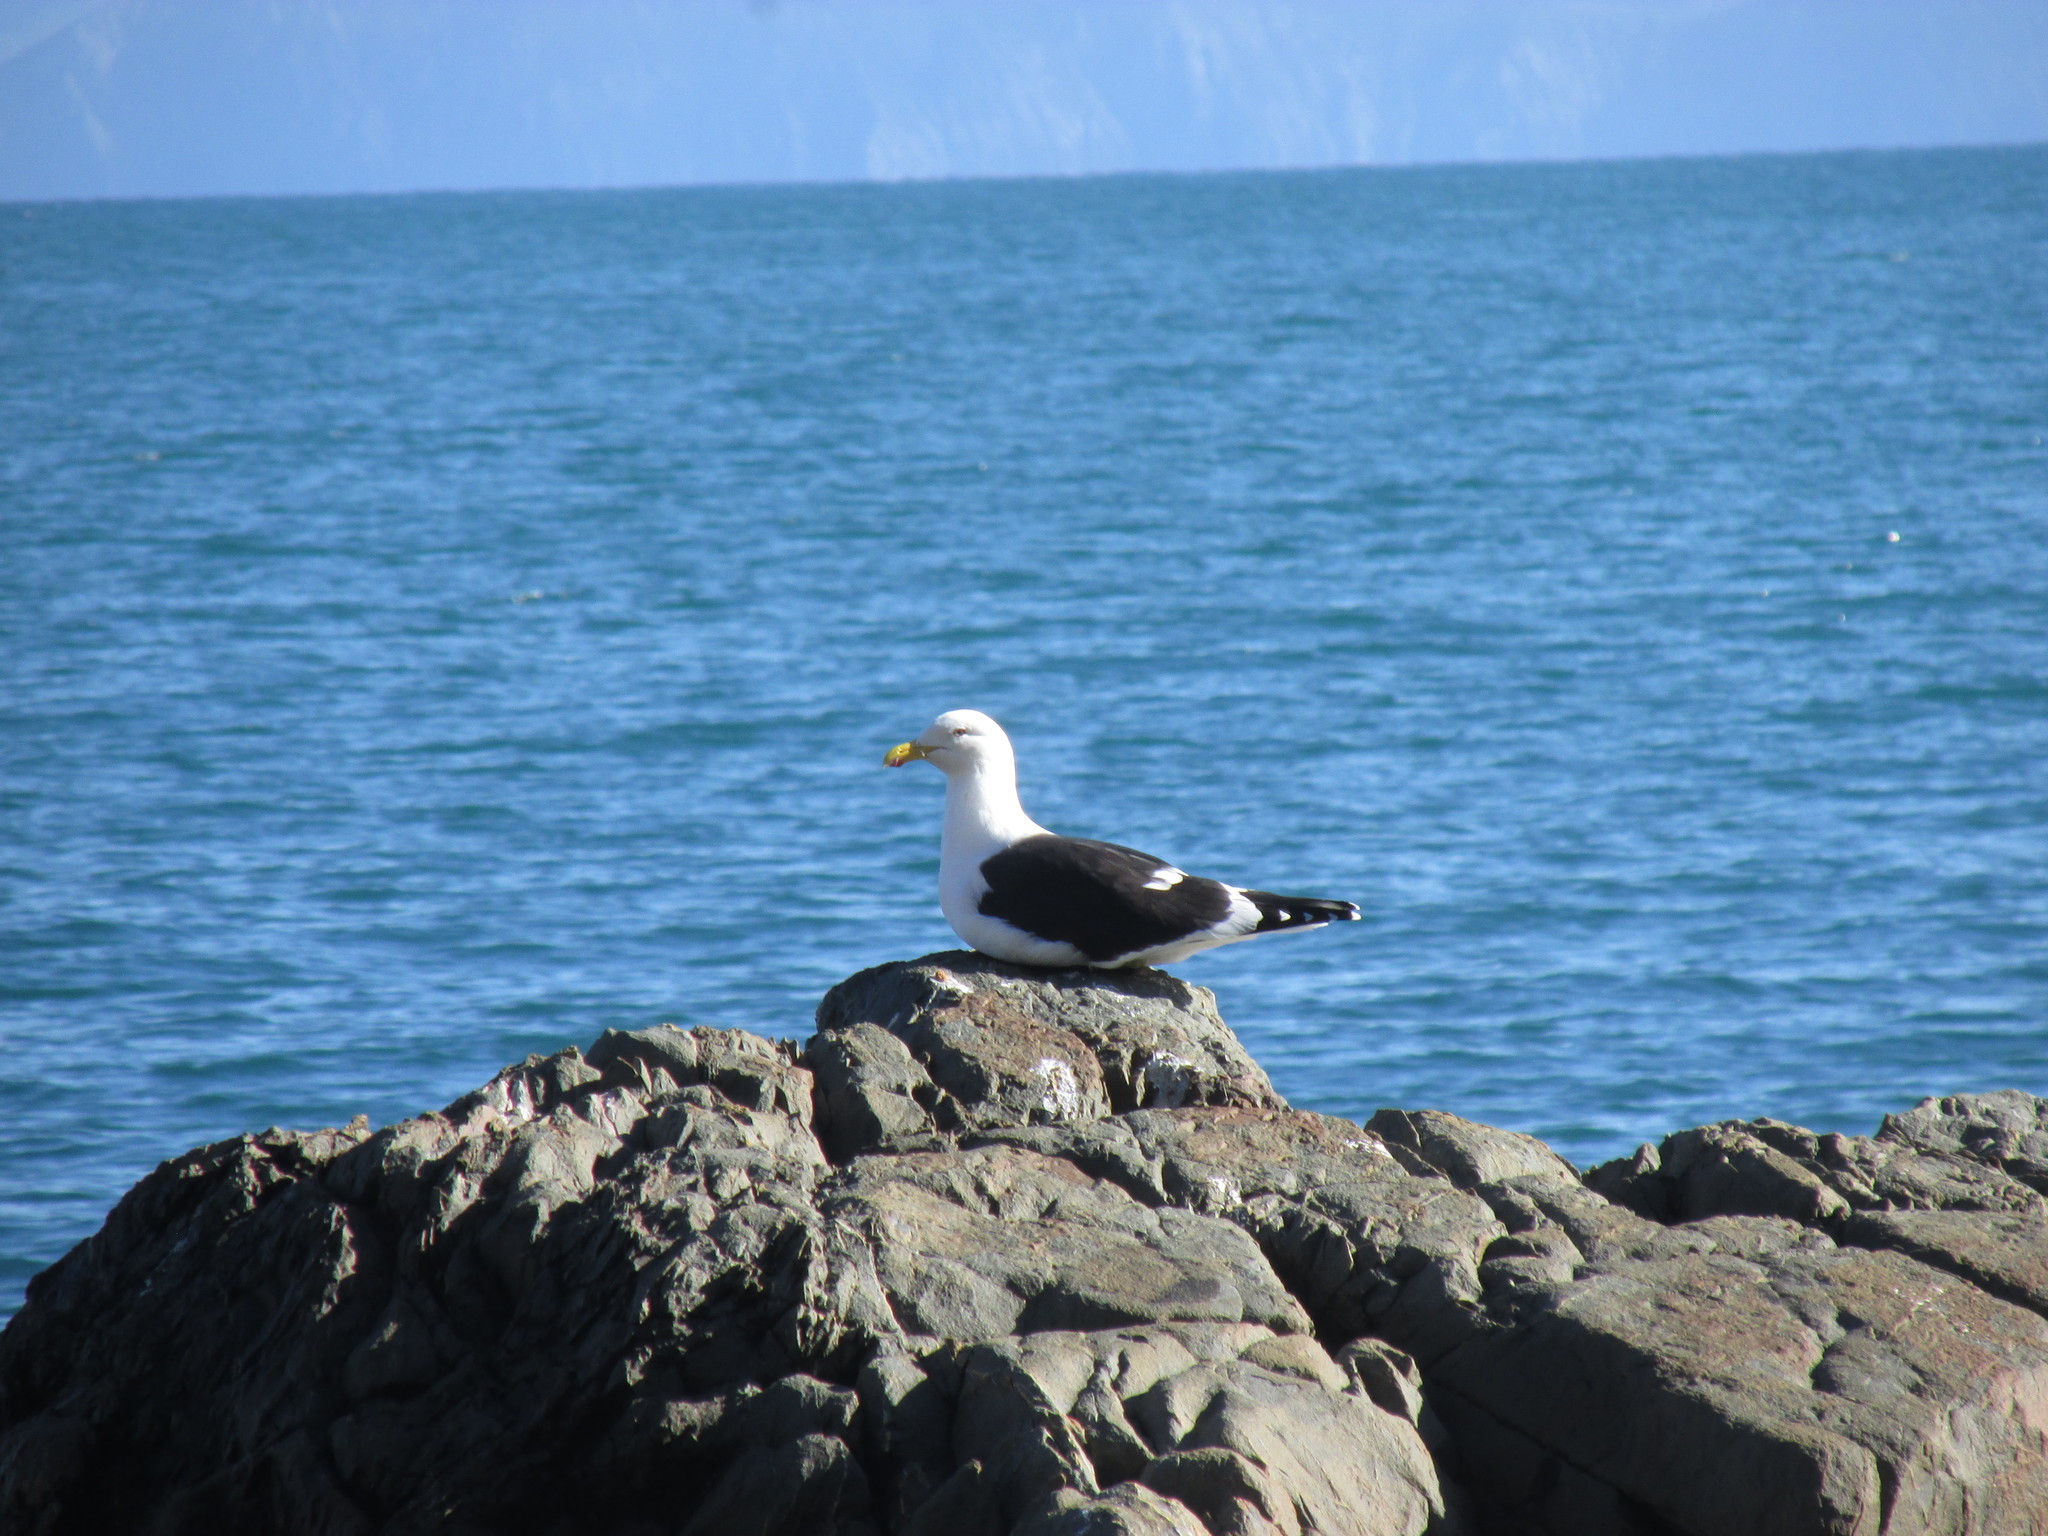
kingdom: Animalia
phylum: Chordata
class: Aves
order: Charadriiformes
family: Laridae
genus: Larus
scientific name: Larus dominicanus
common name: Kelp gull
